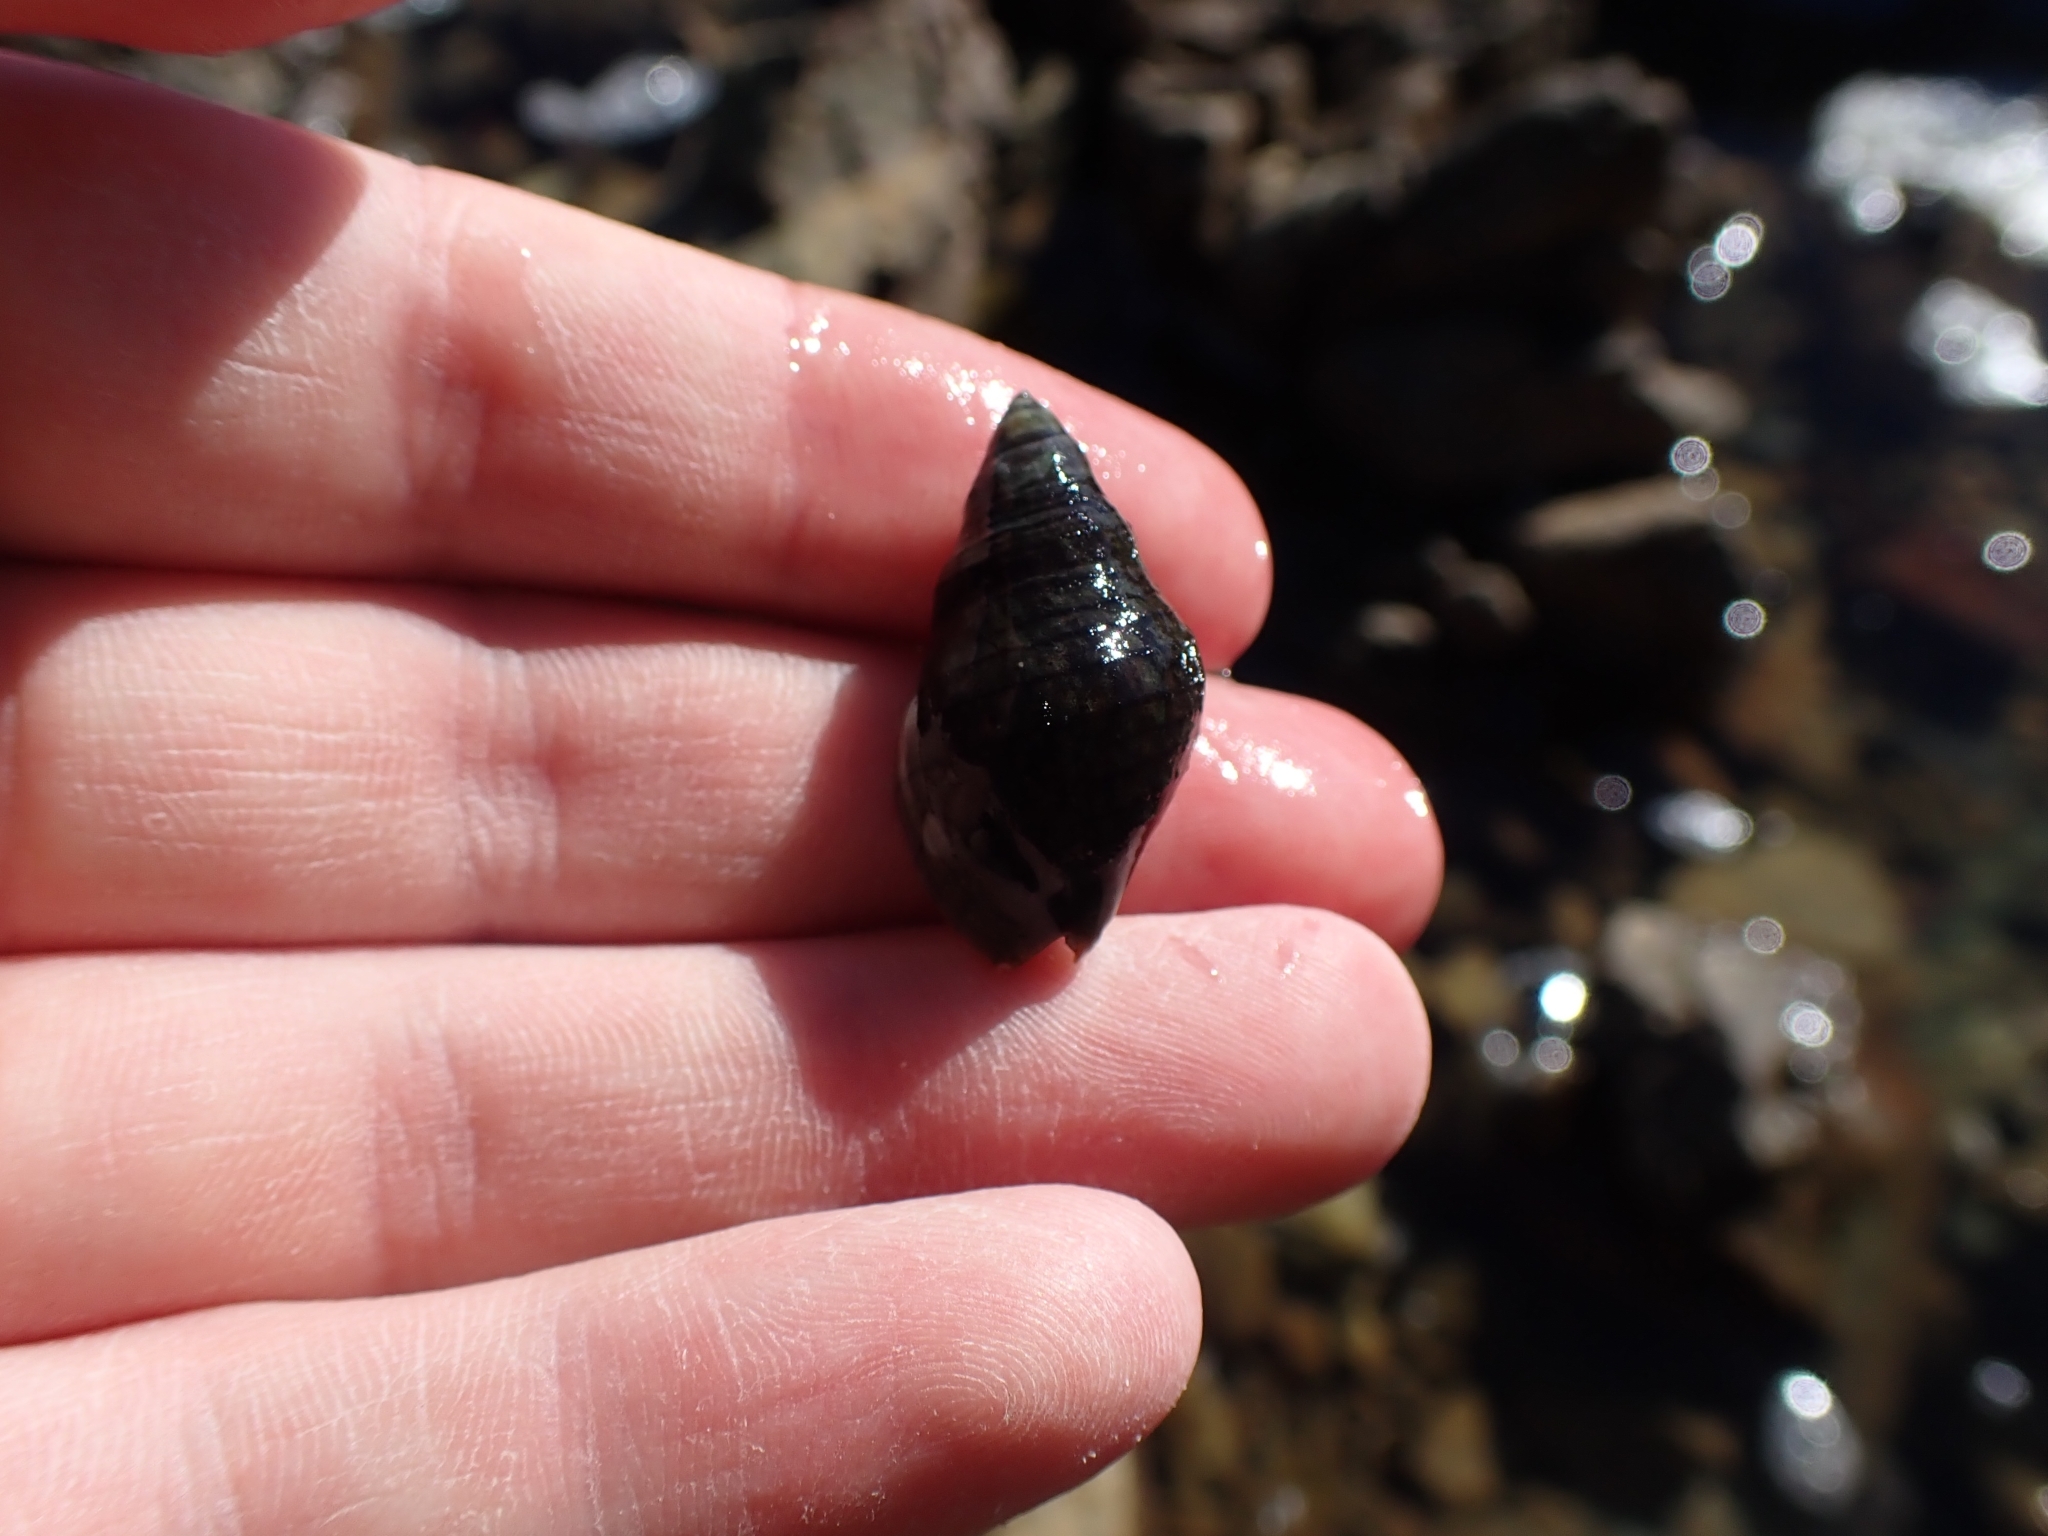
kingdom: Animalia
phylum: Mollusca
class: Gastropoda
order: Neogastropoda
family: Cominellidae
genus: Cominella
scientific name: Cominella virgata
